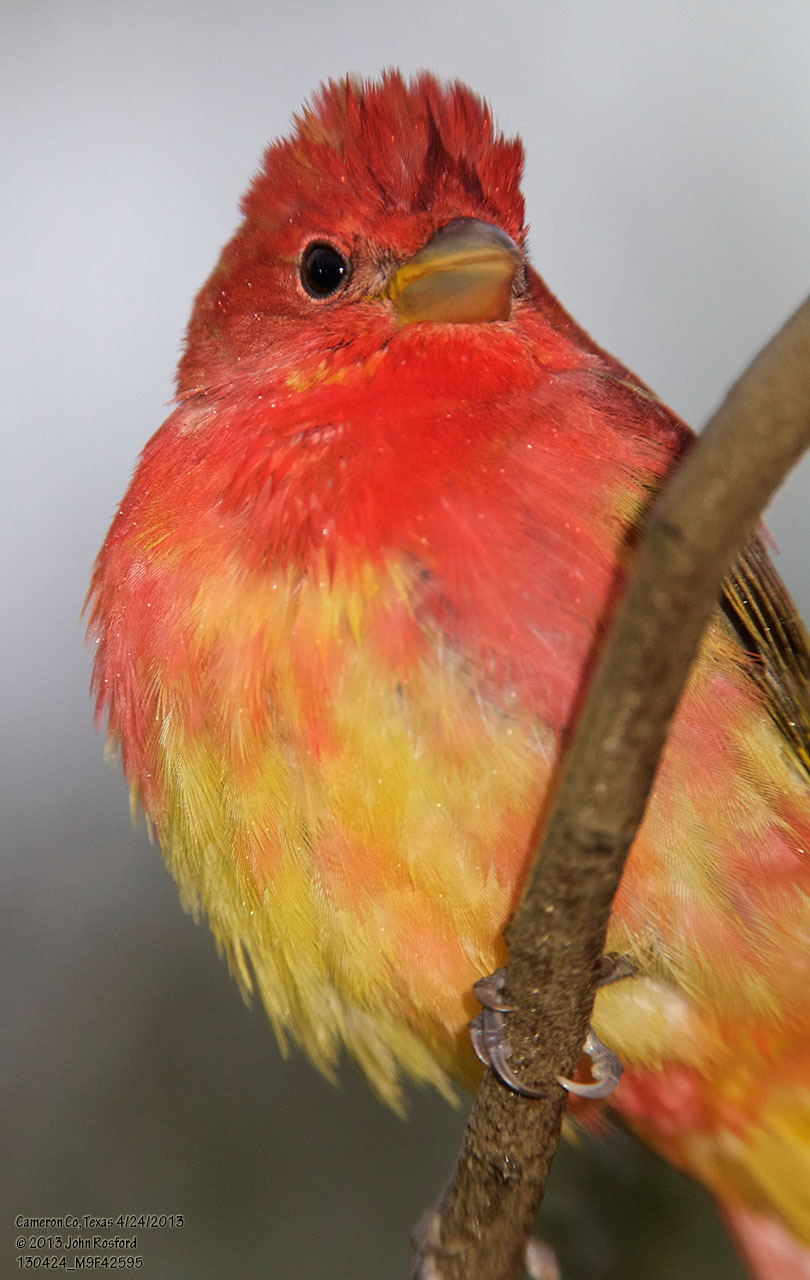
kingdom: Animalia
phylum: Chordata
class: Aves
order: Passeriformes
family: Cardinalidae
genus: Piranga
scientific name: Piranga rubra
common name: Summer tanager
